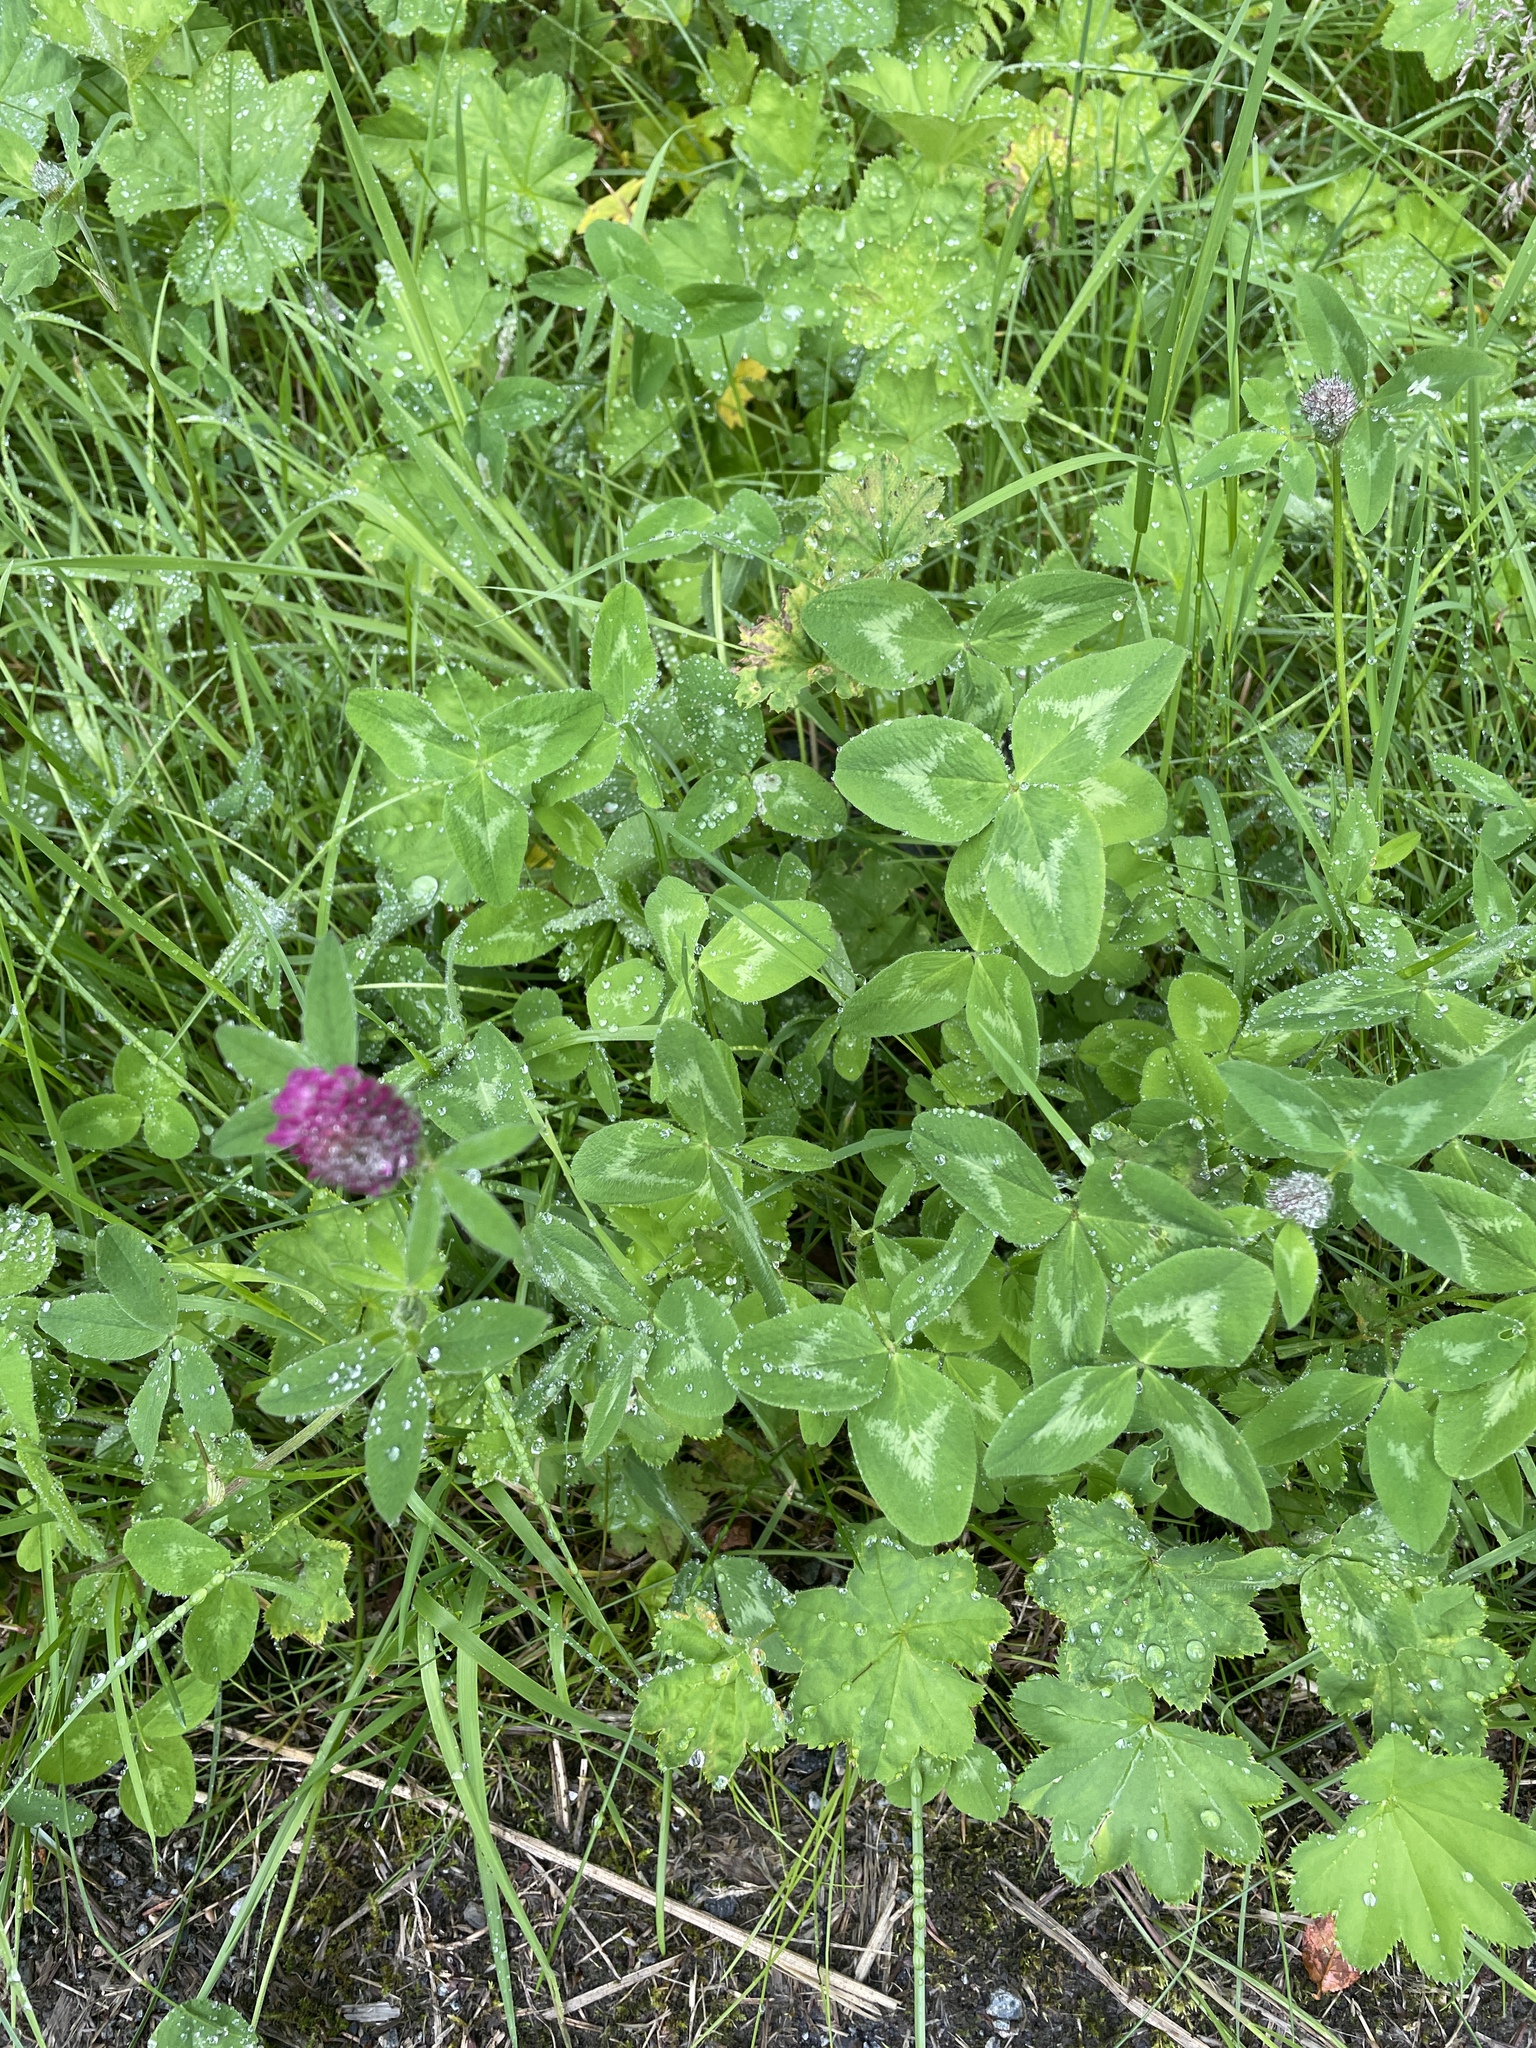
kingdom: Plantae
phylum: Tracheophyta
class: Magnoliopsida
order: Fabales
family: Fabaceae
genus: Trifolium
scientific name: Trifolium pratense
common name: Red clover
